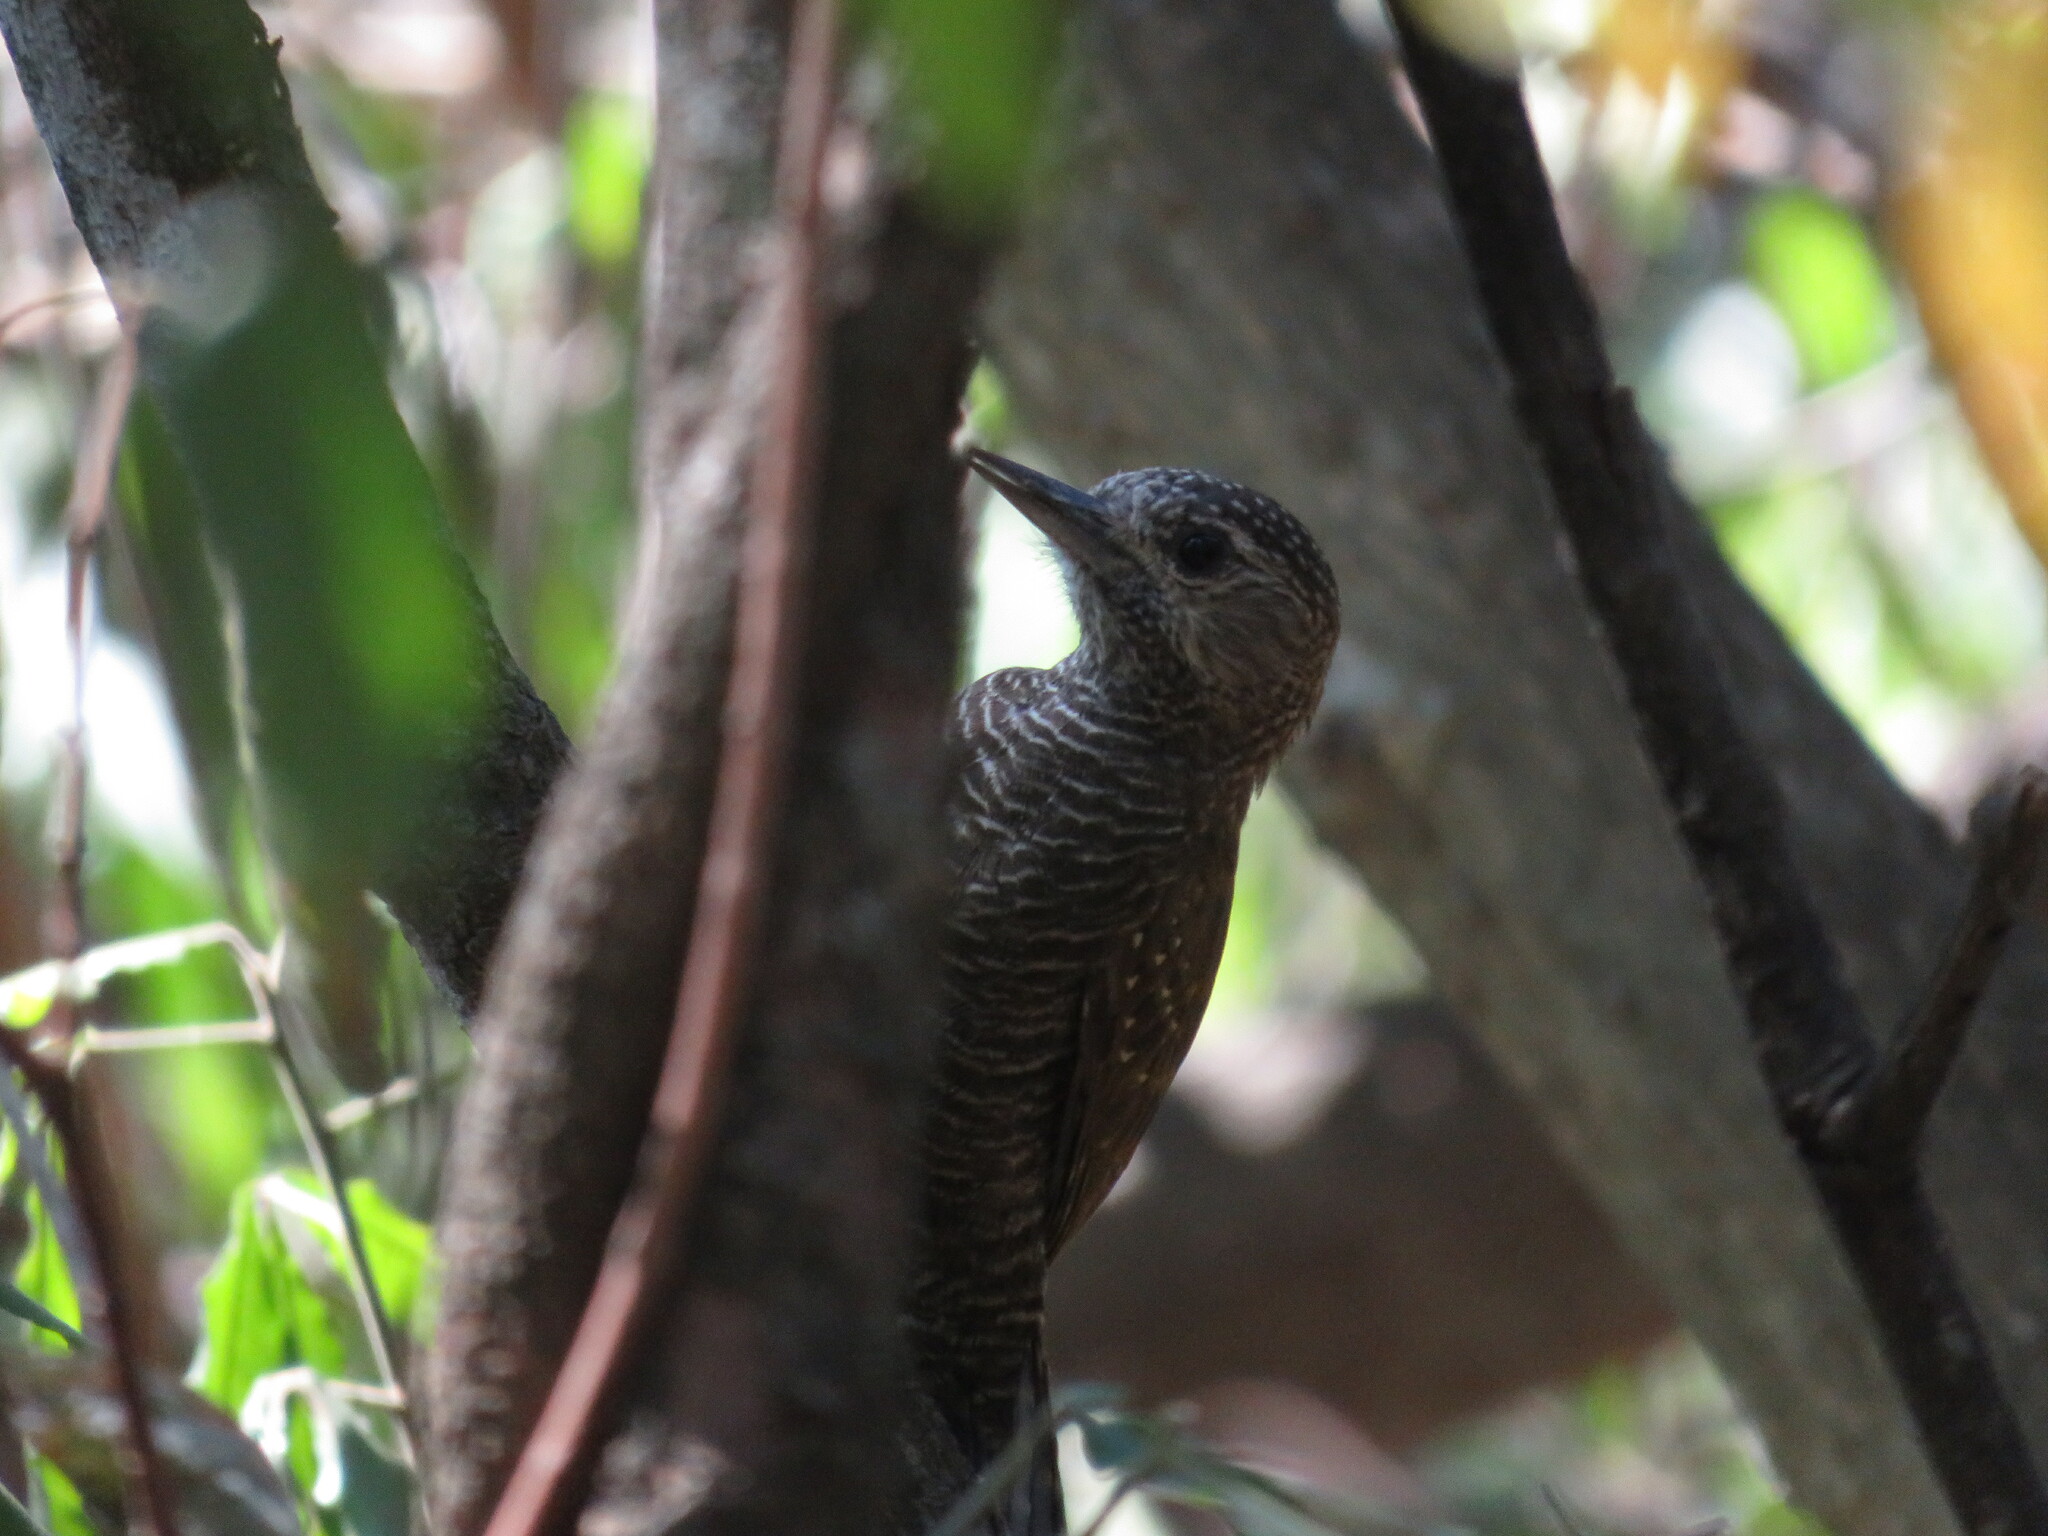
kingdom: Animalia
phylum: Chordata
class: Aves
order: Piciformes
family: Picidae
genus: Veniliornis
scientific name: Veniliornis frontalis
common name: Dot-fronted woodpecker
